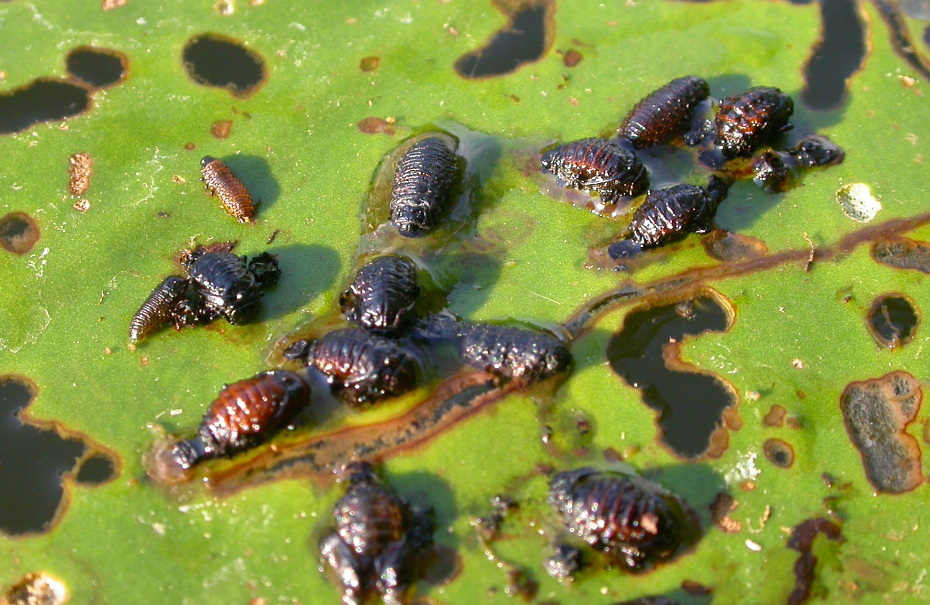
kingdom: Animalia
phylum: Arthropoda
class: Insecta
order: Coleoptera
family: Chrysomelidae
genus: Galerucella
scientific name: Galerucella nymphaeae
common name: Leaf beetle
